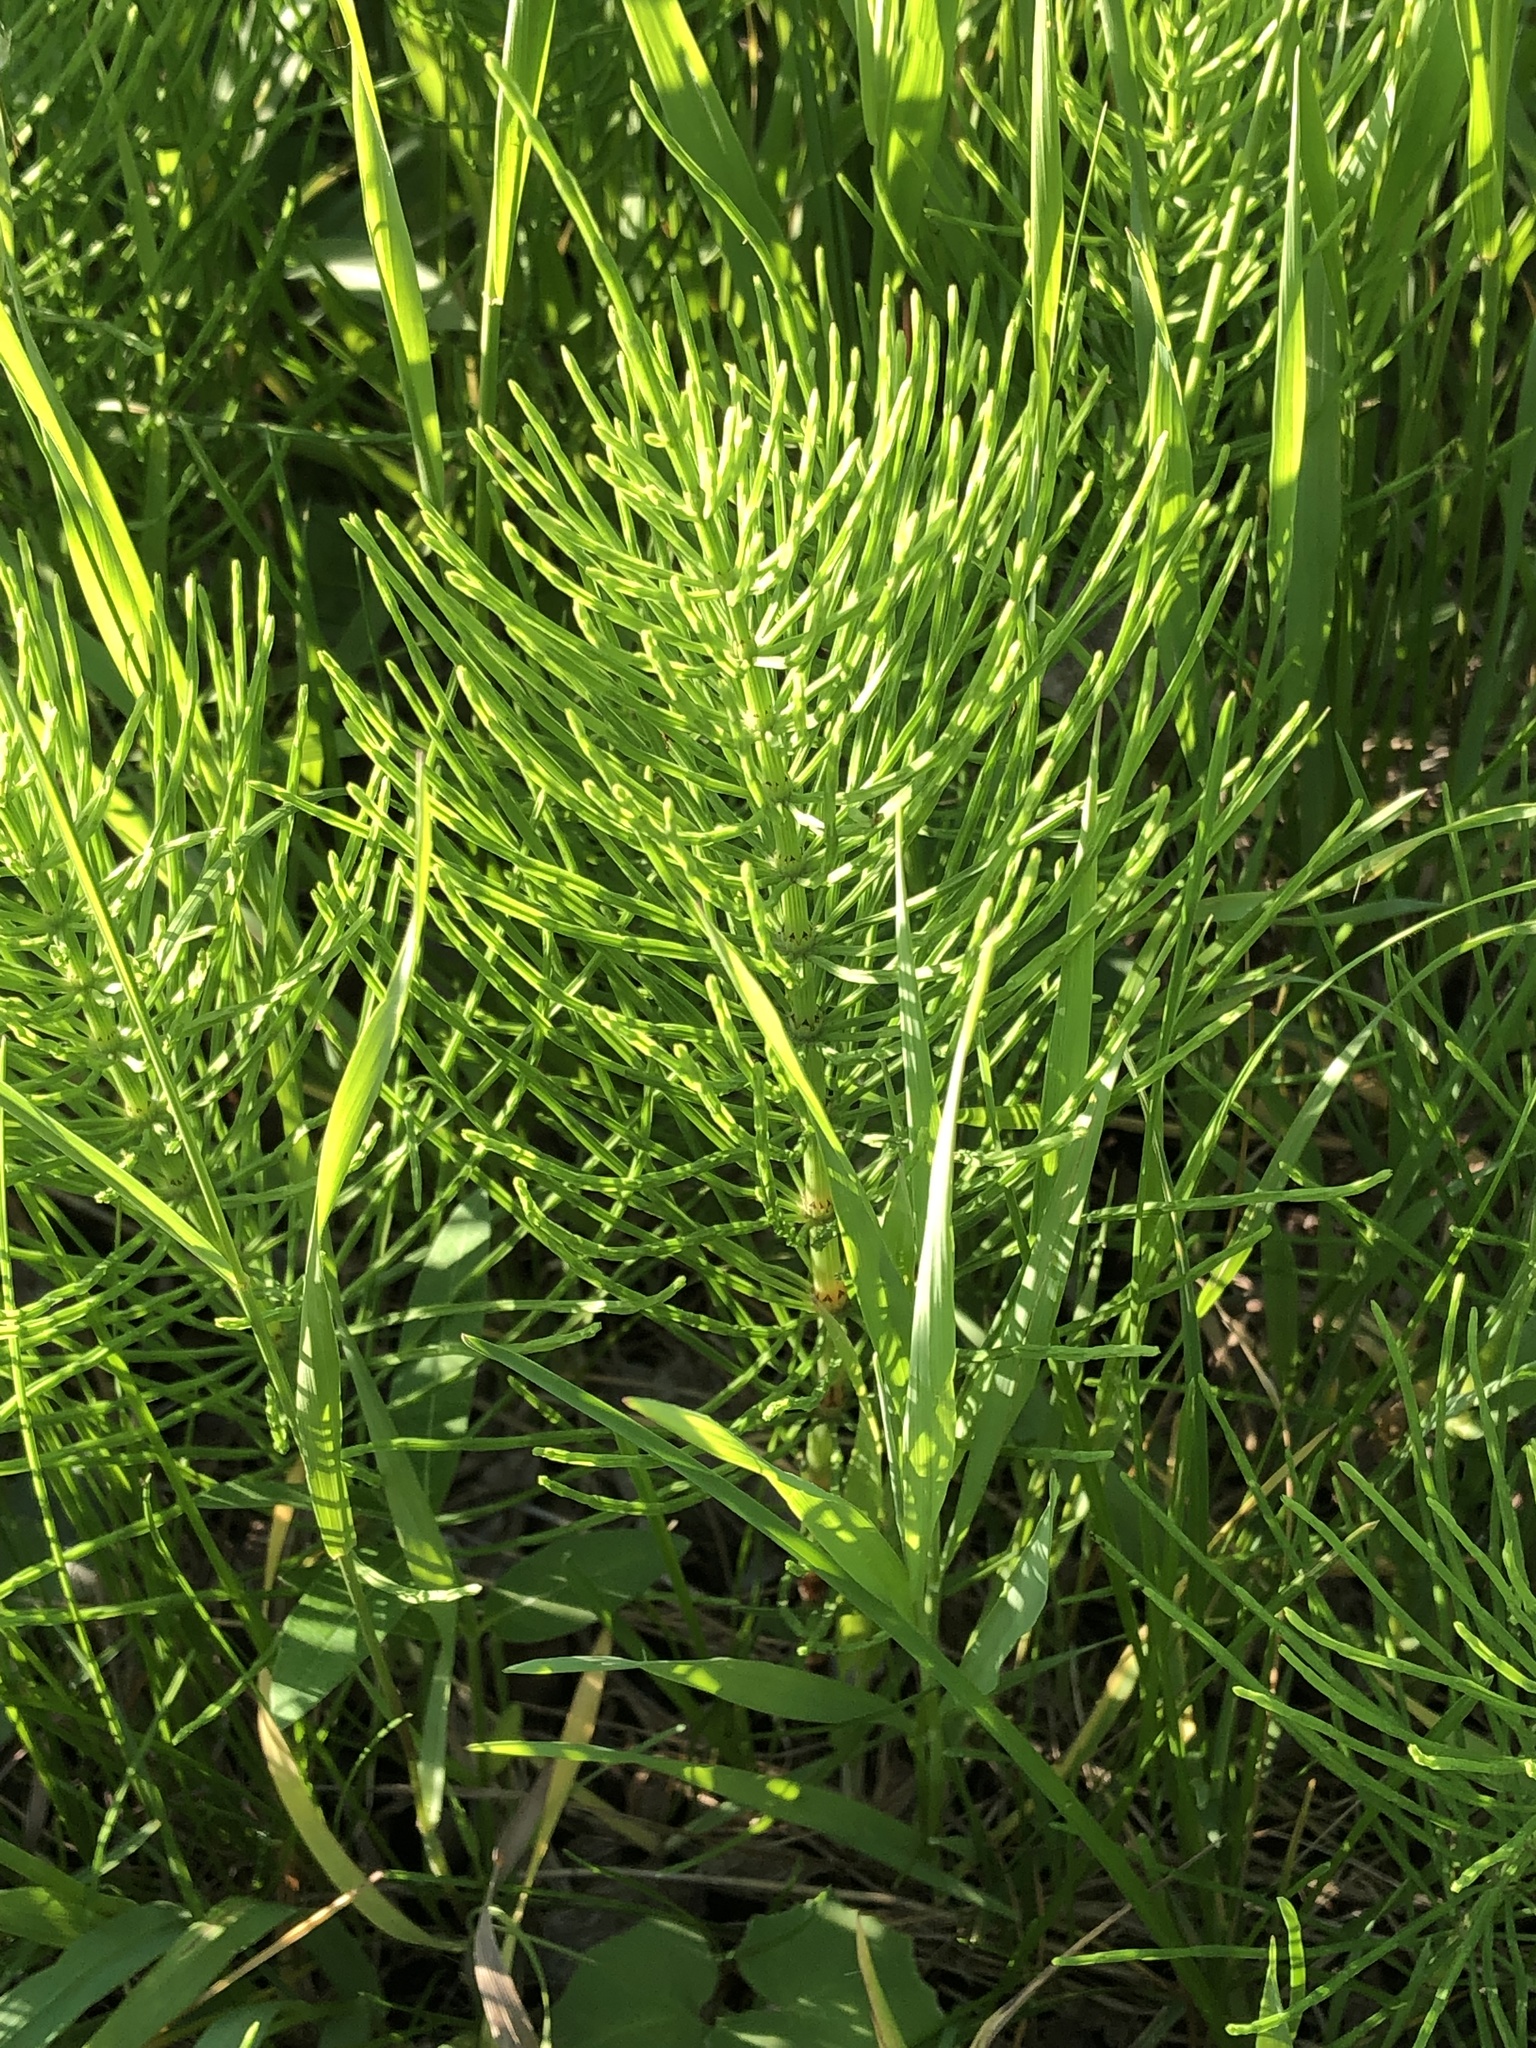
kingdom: Plantae
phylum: Tracheophyta
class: Polypodiopsida
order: Equisetales
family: Equisetaceae
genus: Equisetum
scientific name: Equisetum arvense
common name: Field horsetail
